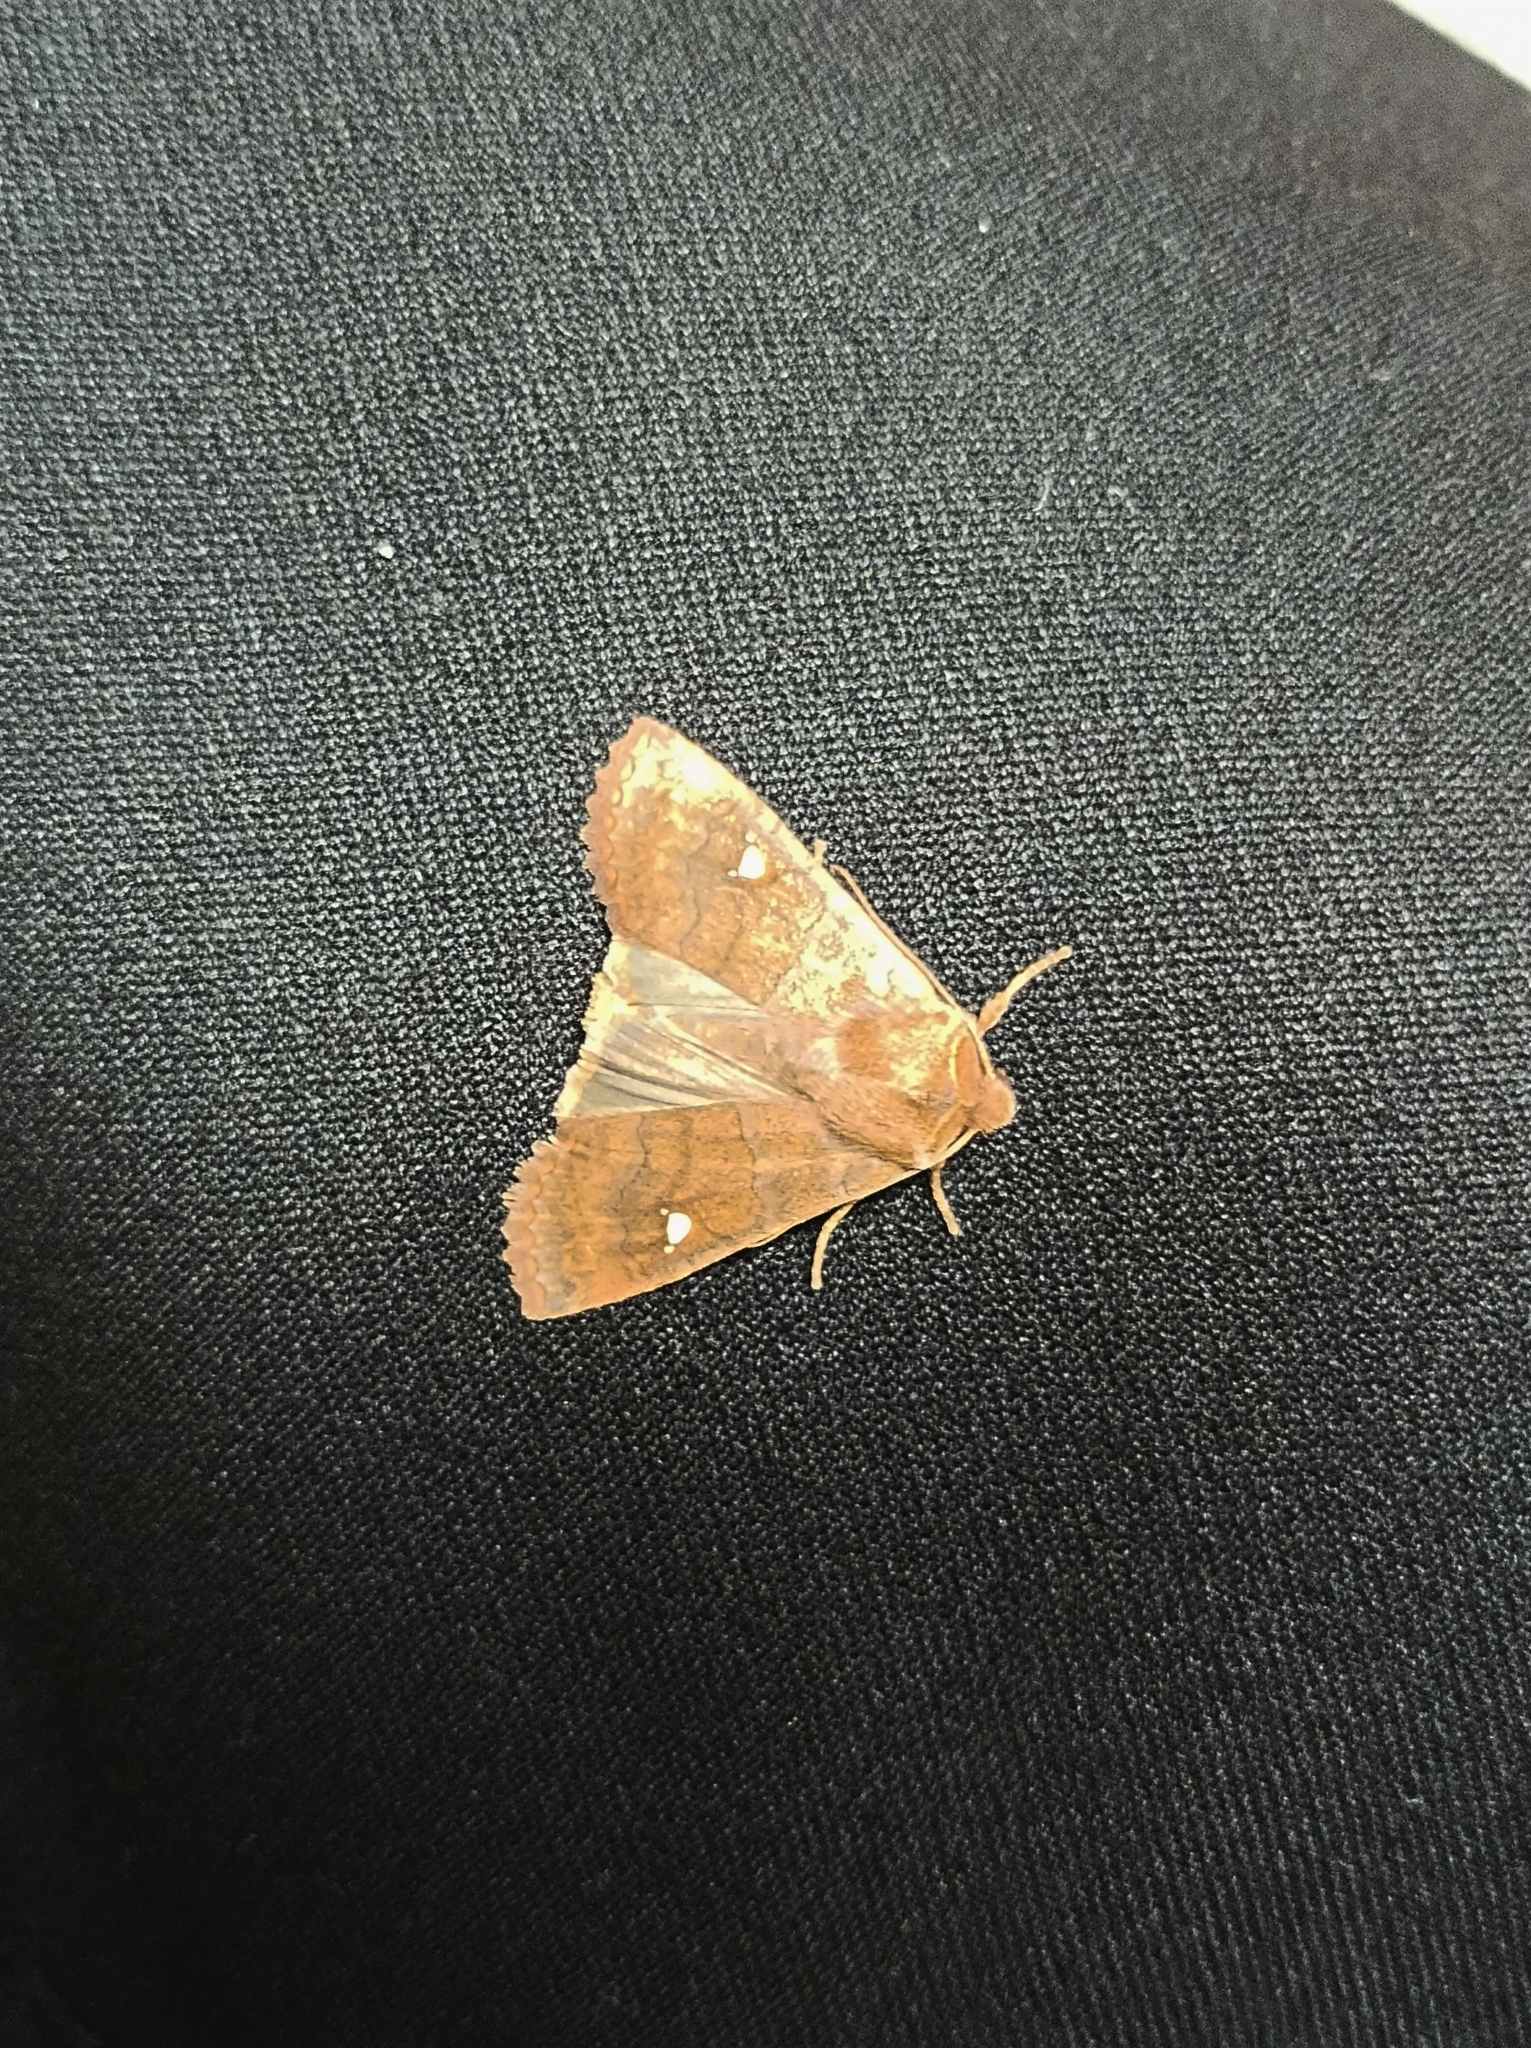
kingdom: Animalia
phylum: Arthropoda
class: Insecta
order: Lepidoptera
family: Noctuidae
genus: Eupsilia
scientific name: Eupsilia transversa
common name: Satellite
